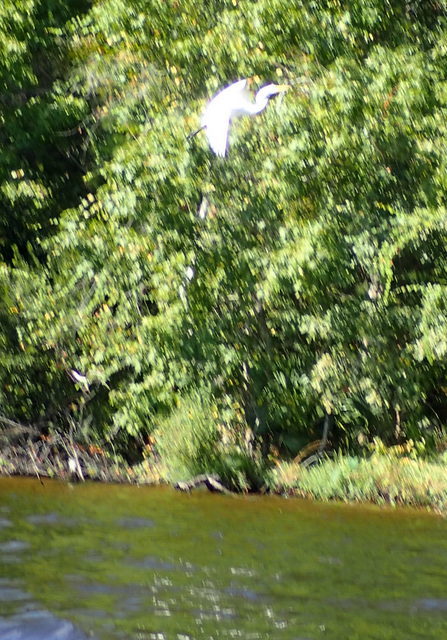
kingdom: Animalia
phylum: Chordata
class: Aves
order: Pelecaniformes
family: Ardeidae
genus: Ardea
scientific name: Ardea alba
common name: Great egret
